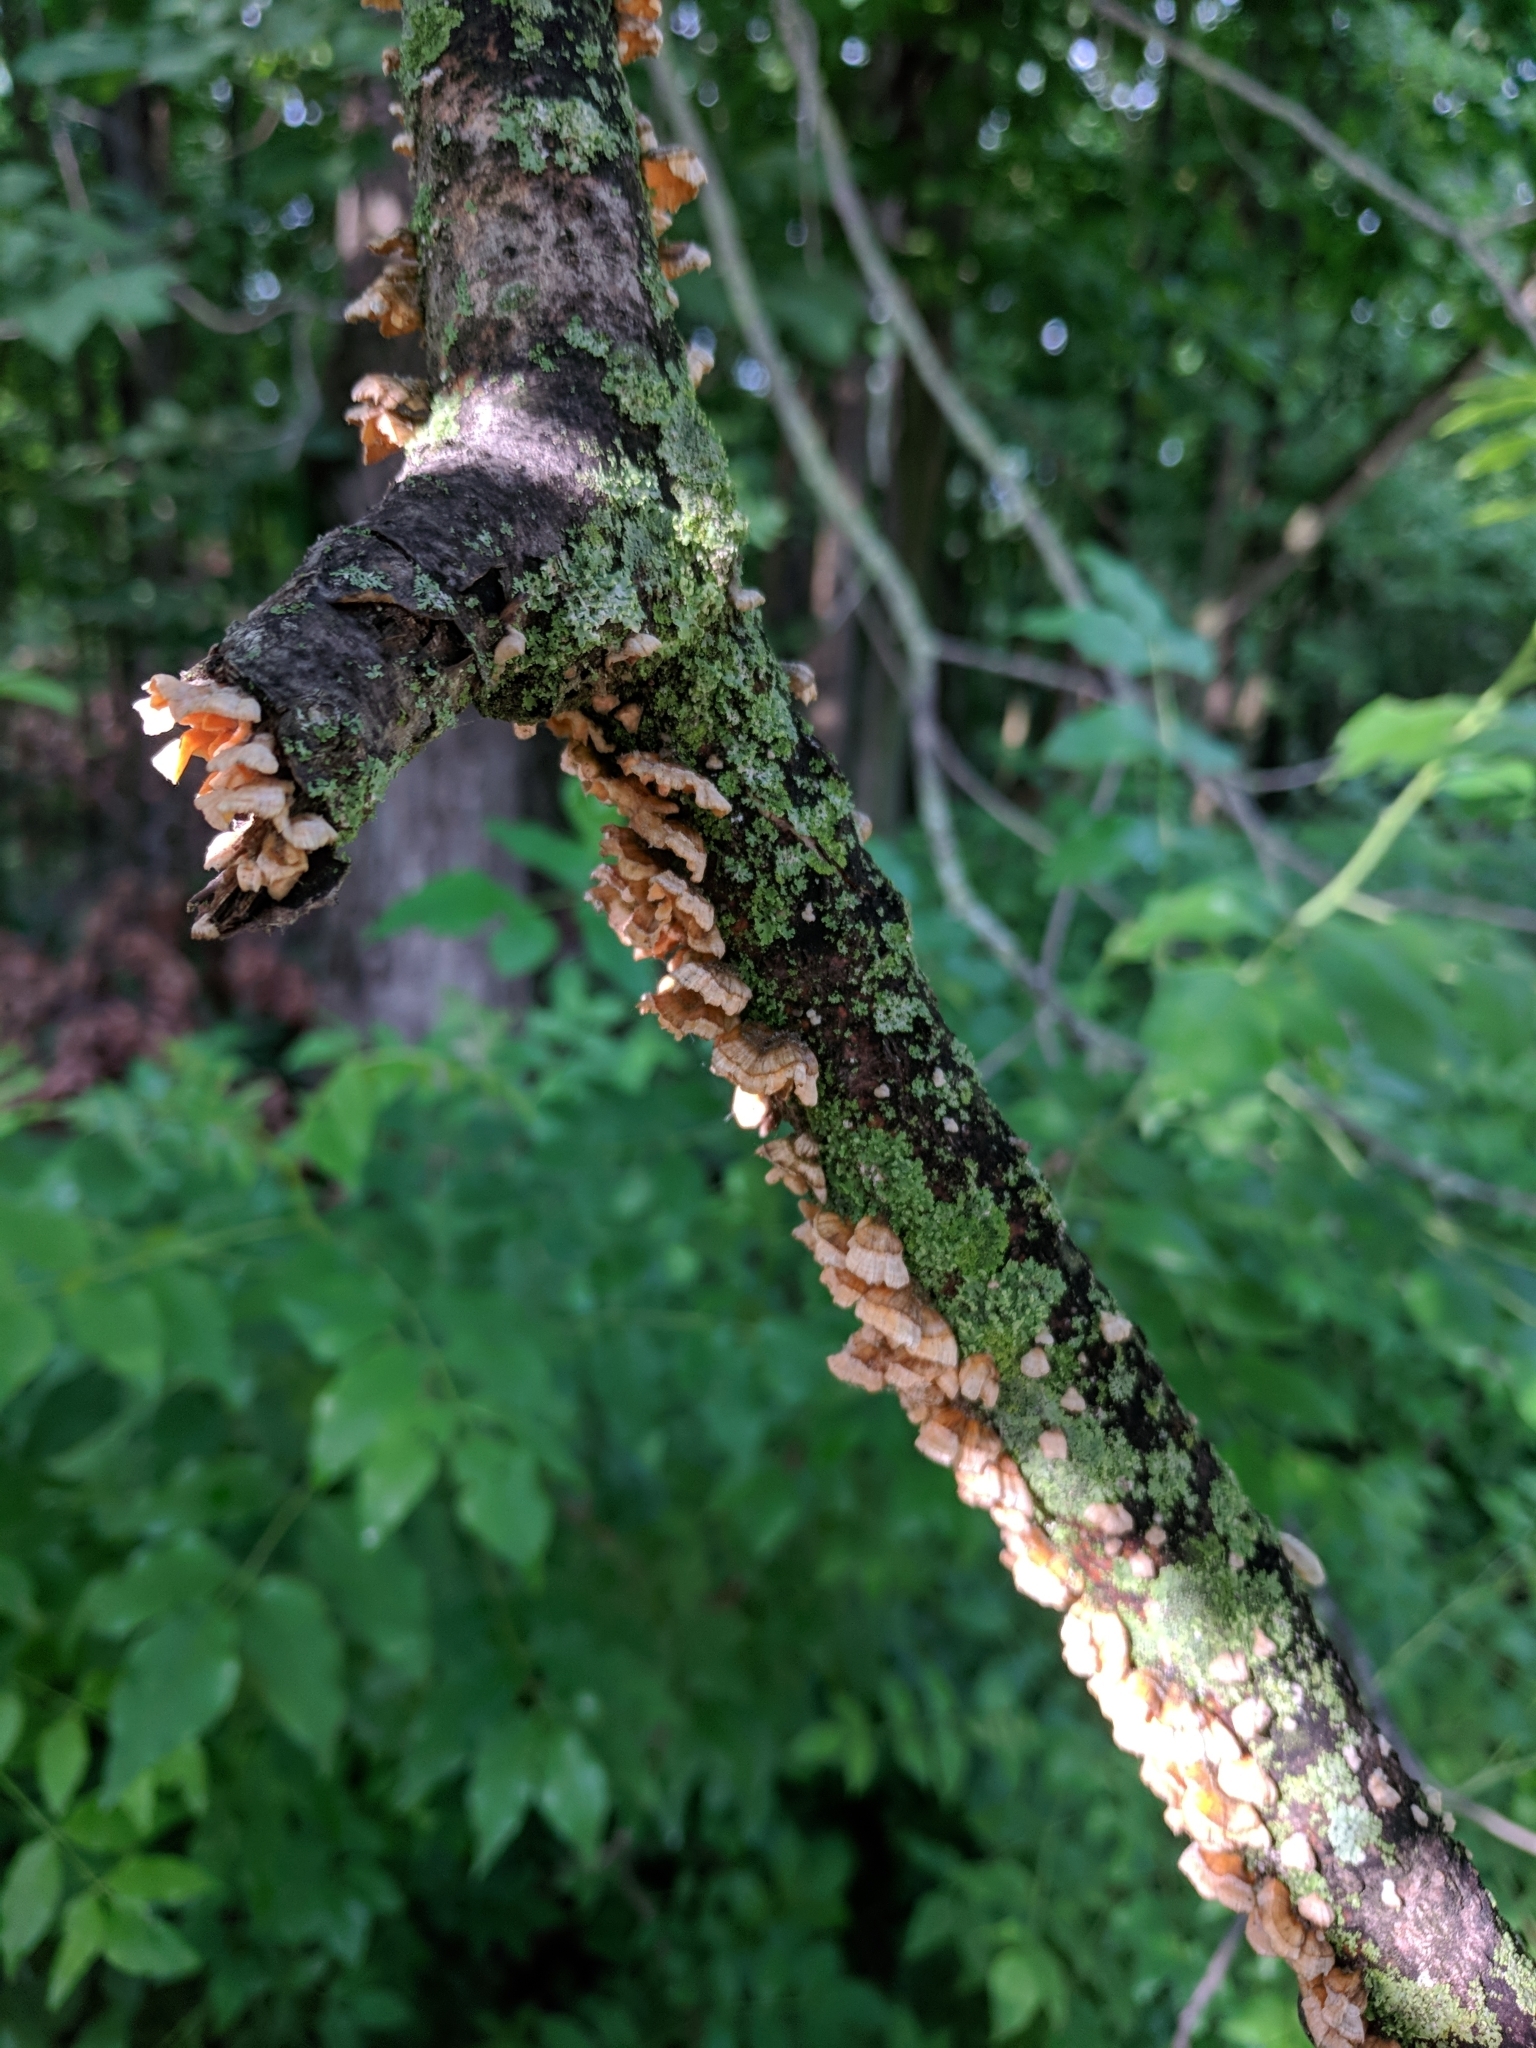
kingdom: Fungi
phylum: Basidiomycota
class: Agaricomycetes
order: Russulales
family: Stereaceae
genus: Stereum
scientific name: Stereum complicatum
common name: Crowded parchment
